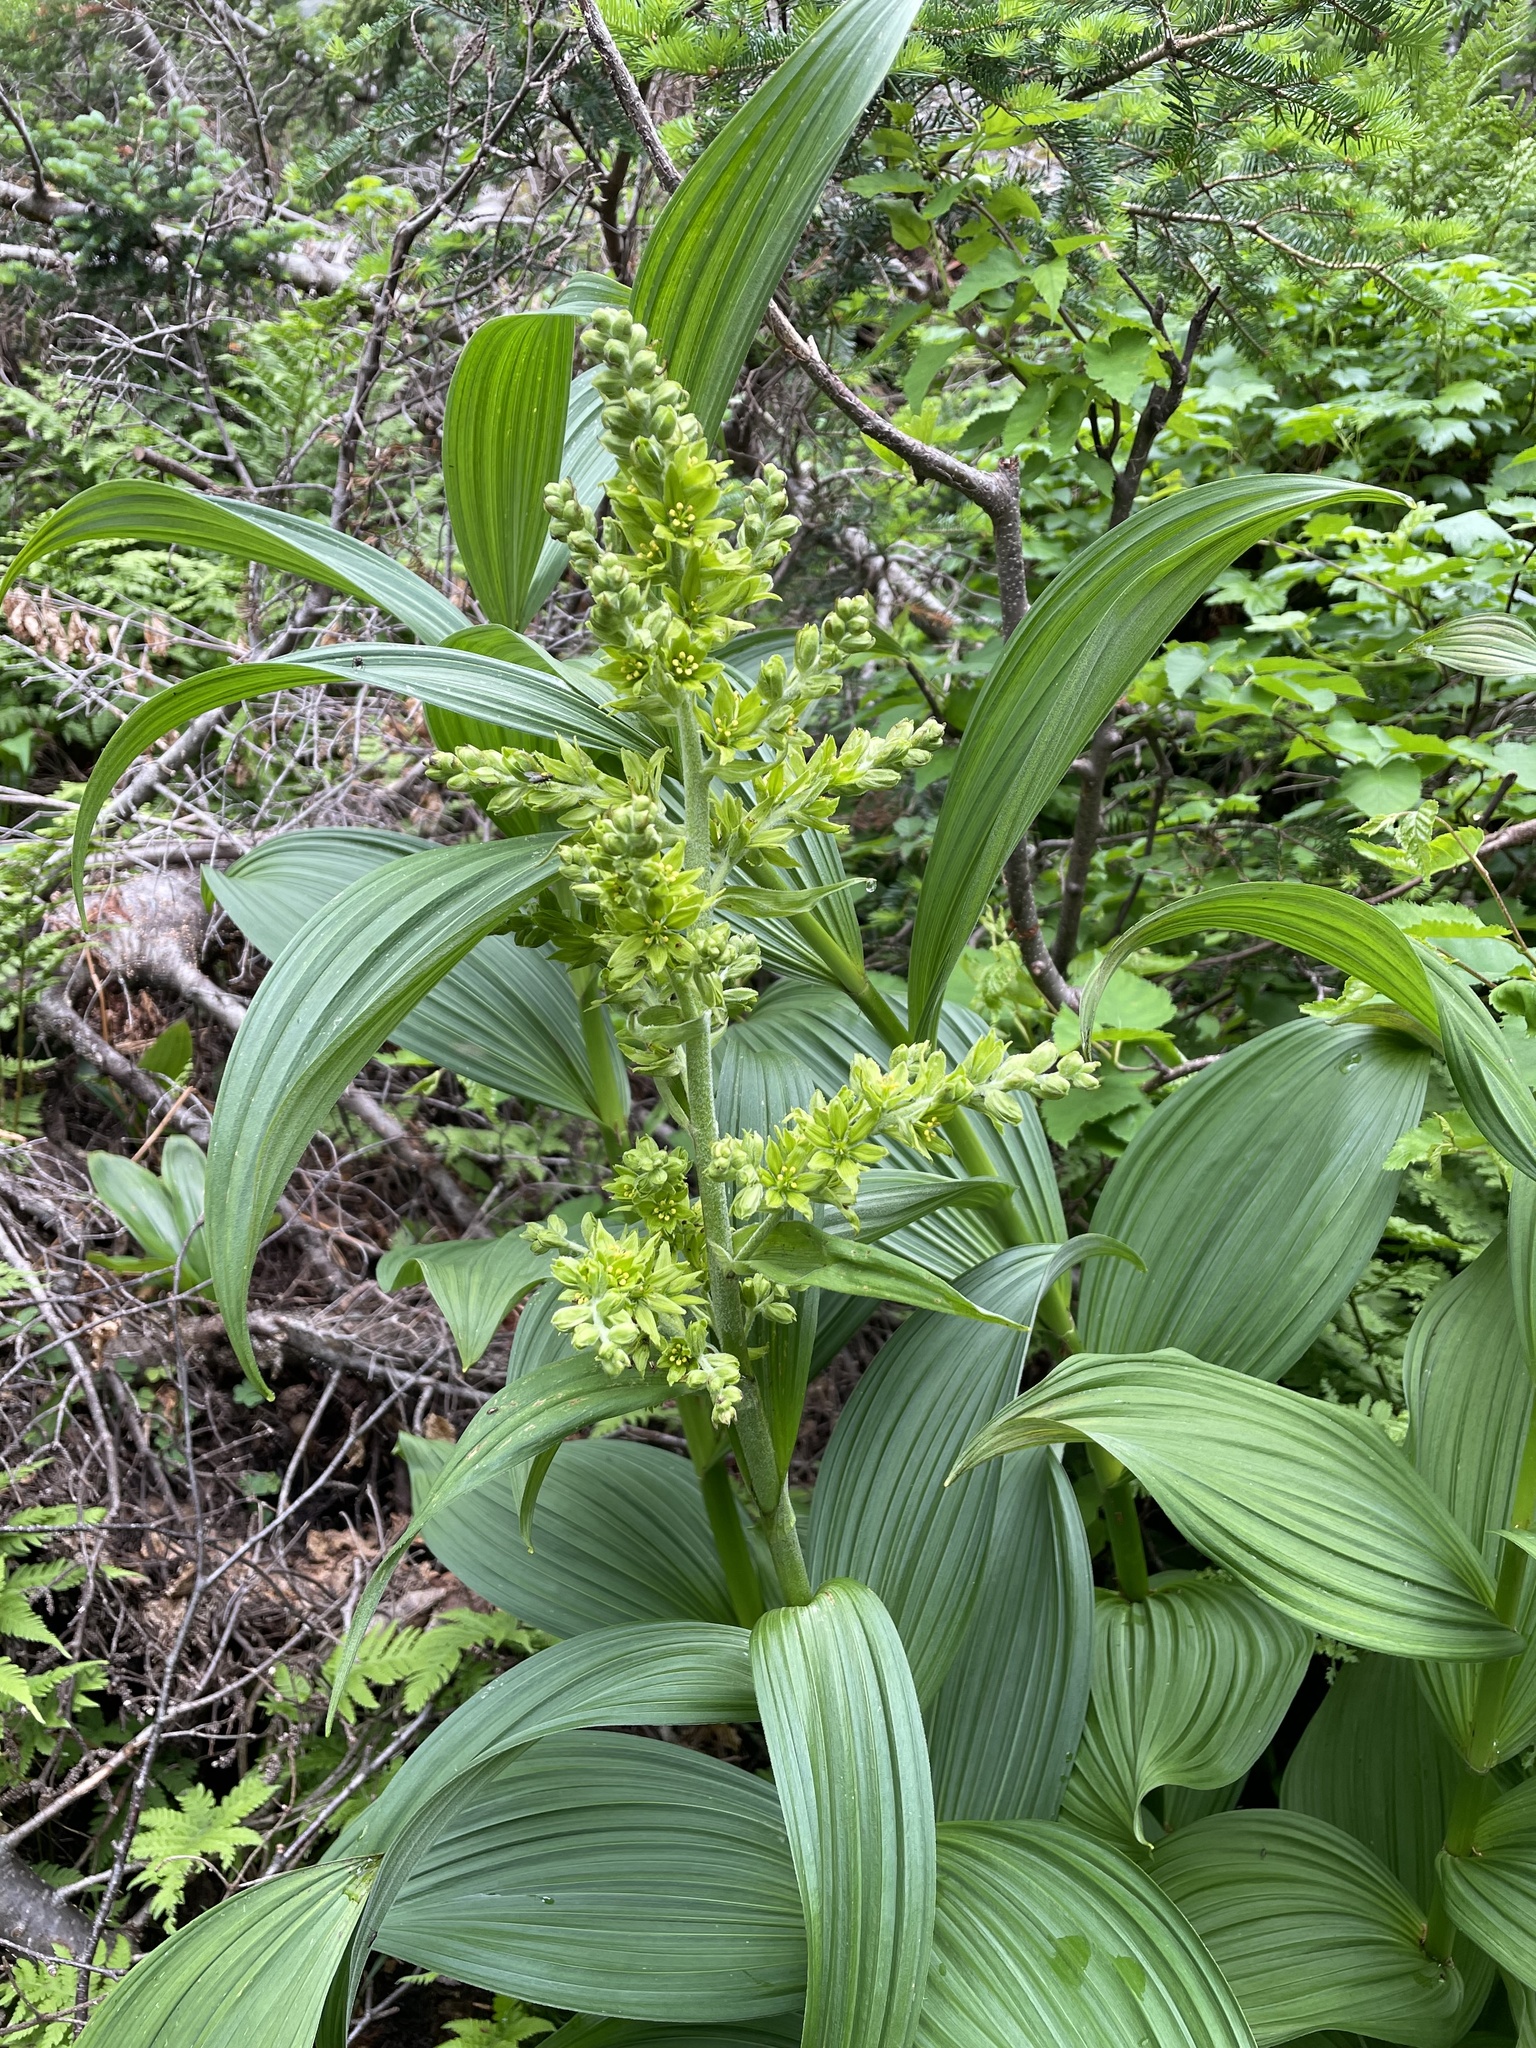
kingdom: Plantae
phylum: Tracheophyta
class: Liliopsida
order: Liliales
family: Melanthiaceae
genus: Veratrum
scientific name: Veratrum viride
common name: American false hellebore
